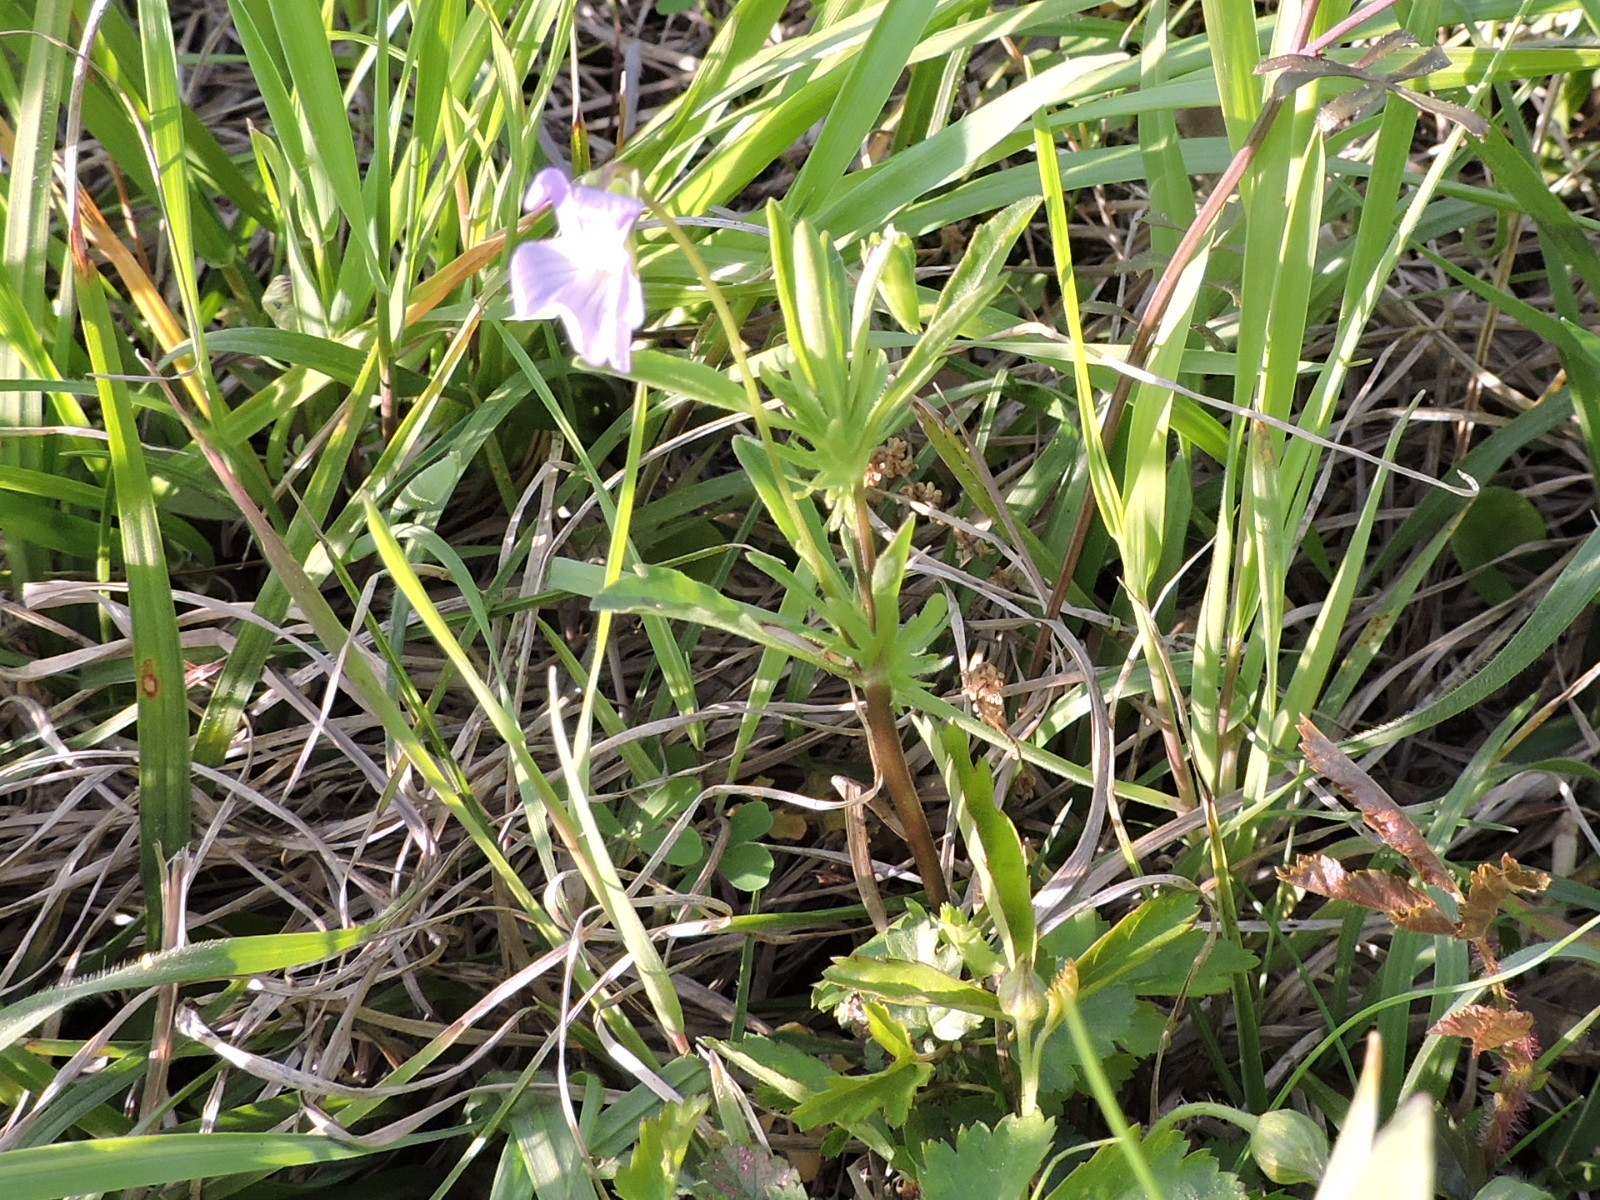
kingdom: Plantae
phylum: Tracheophyta
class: Magnoliopsida
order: Malpighiales
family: Violaceae
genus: Viola
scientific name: Viola rafinesquei
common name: American field pansy
